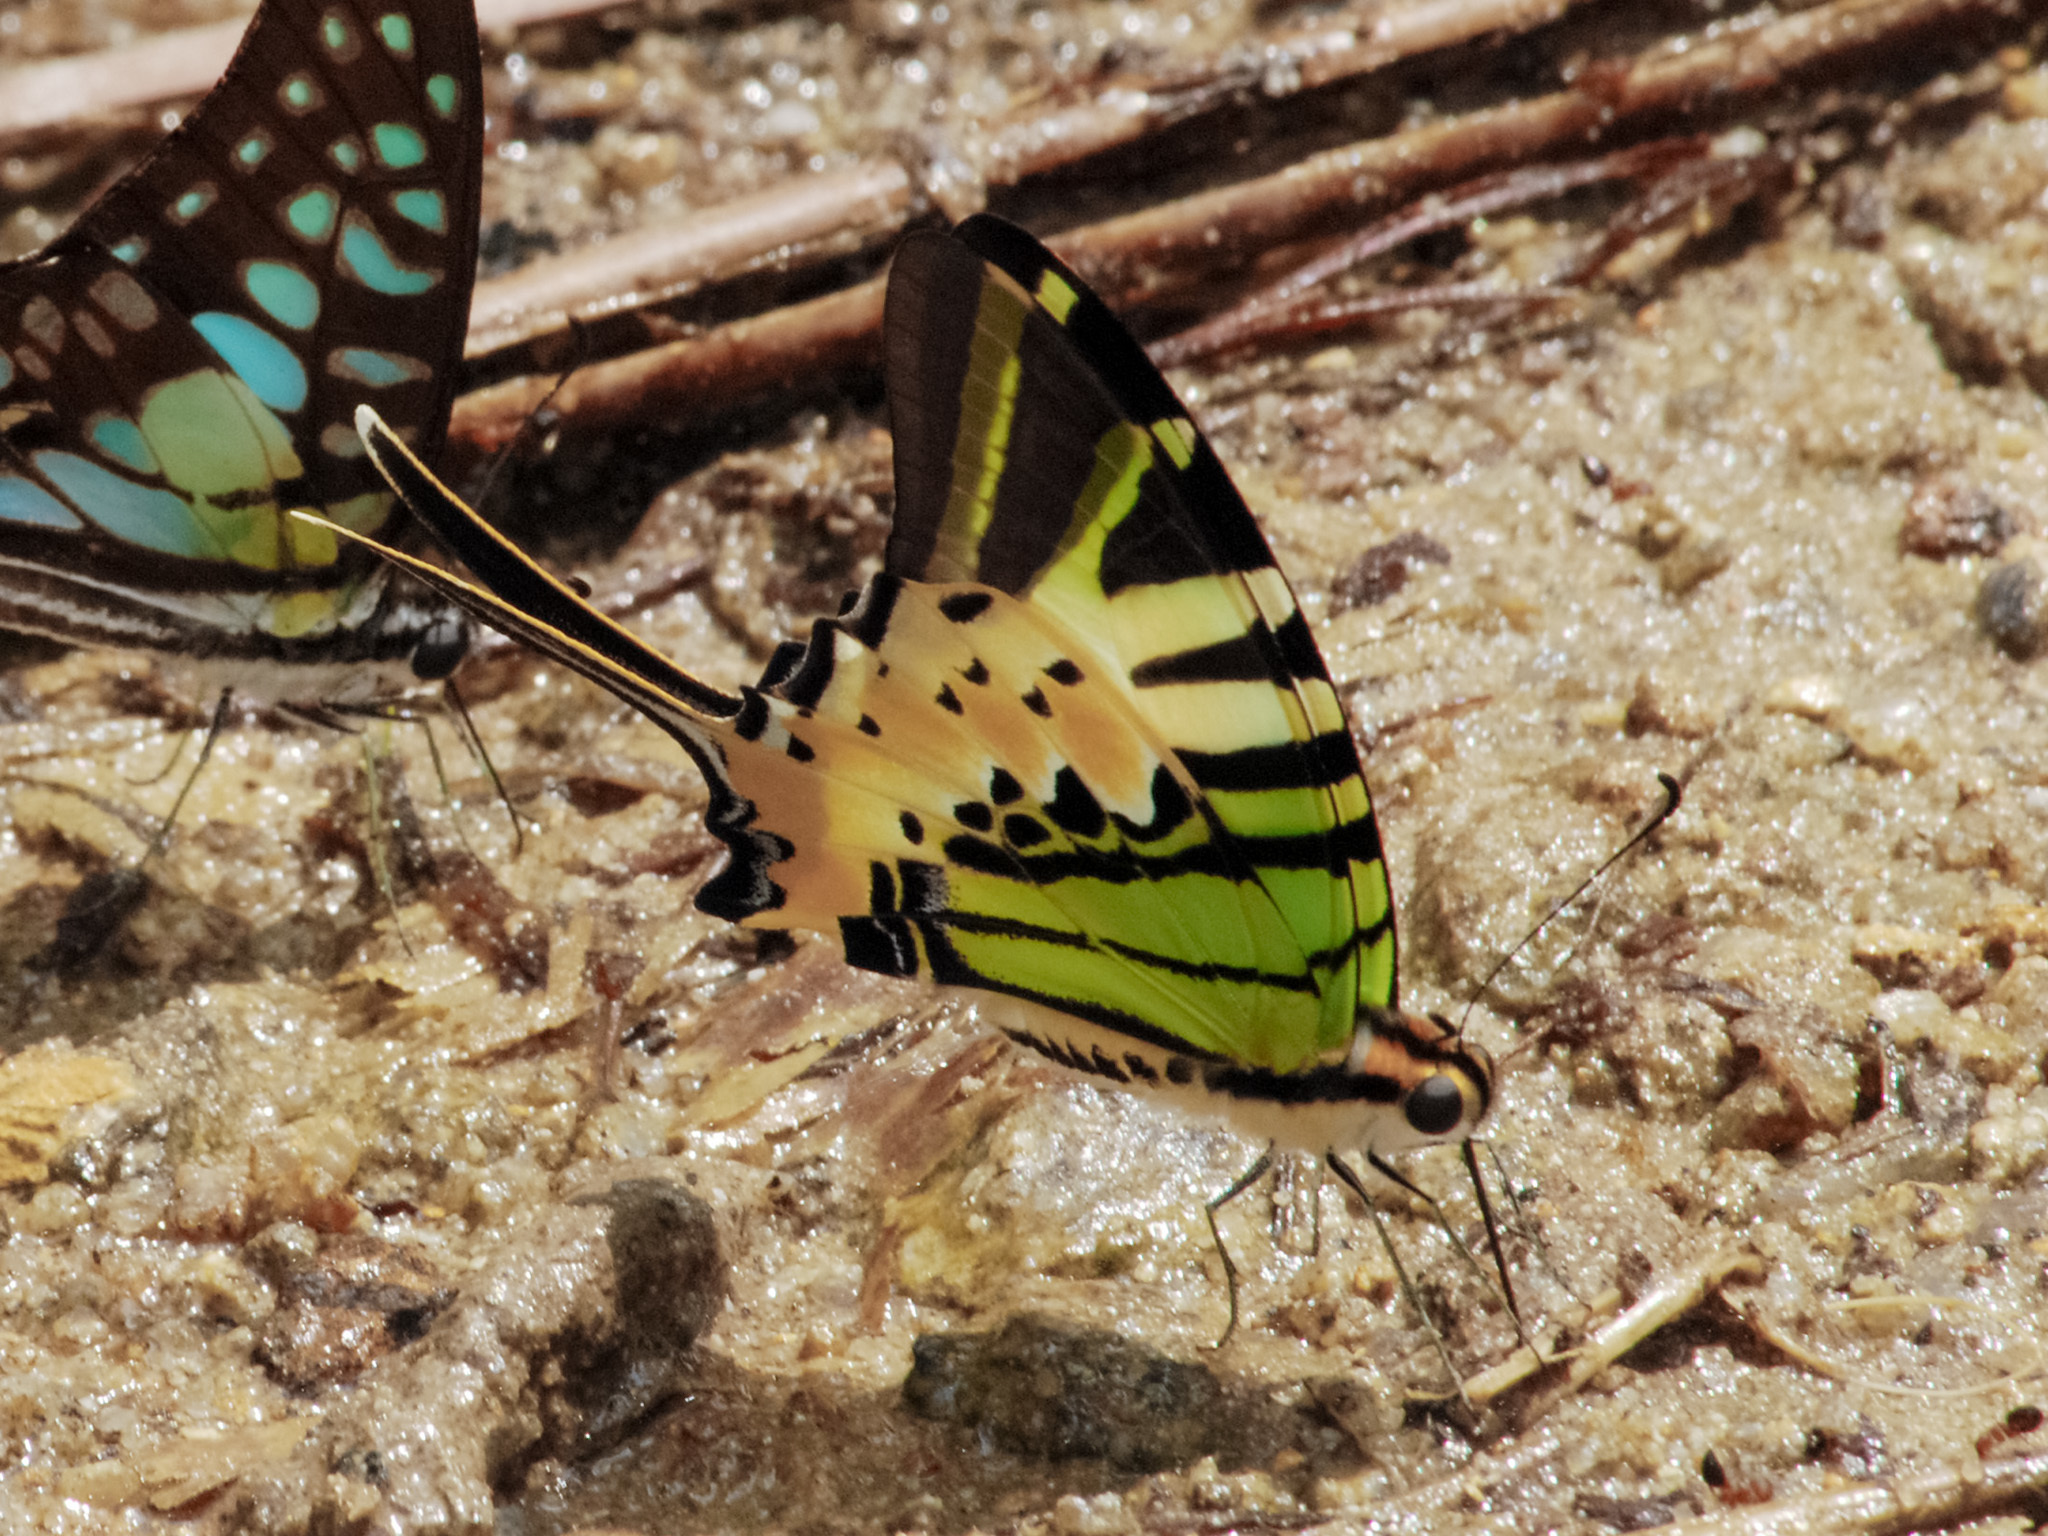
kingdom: Animalia
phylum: Arthropoda
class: Insecta
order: Lepidoptera
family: Papilionidae
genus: Graphium
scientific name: Graphium antiphates
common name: Fivebar swordtail
